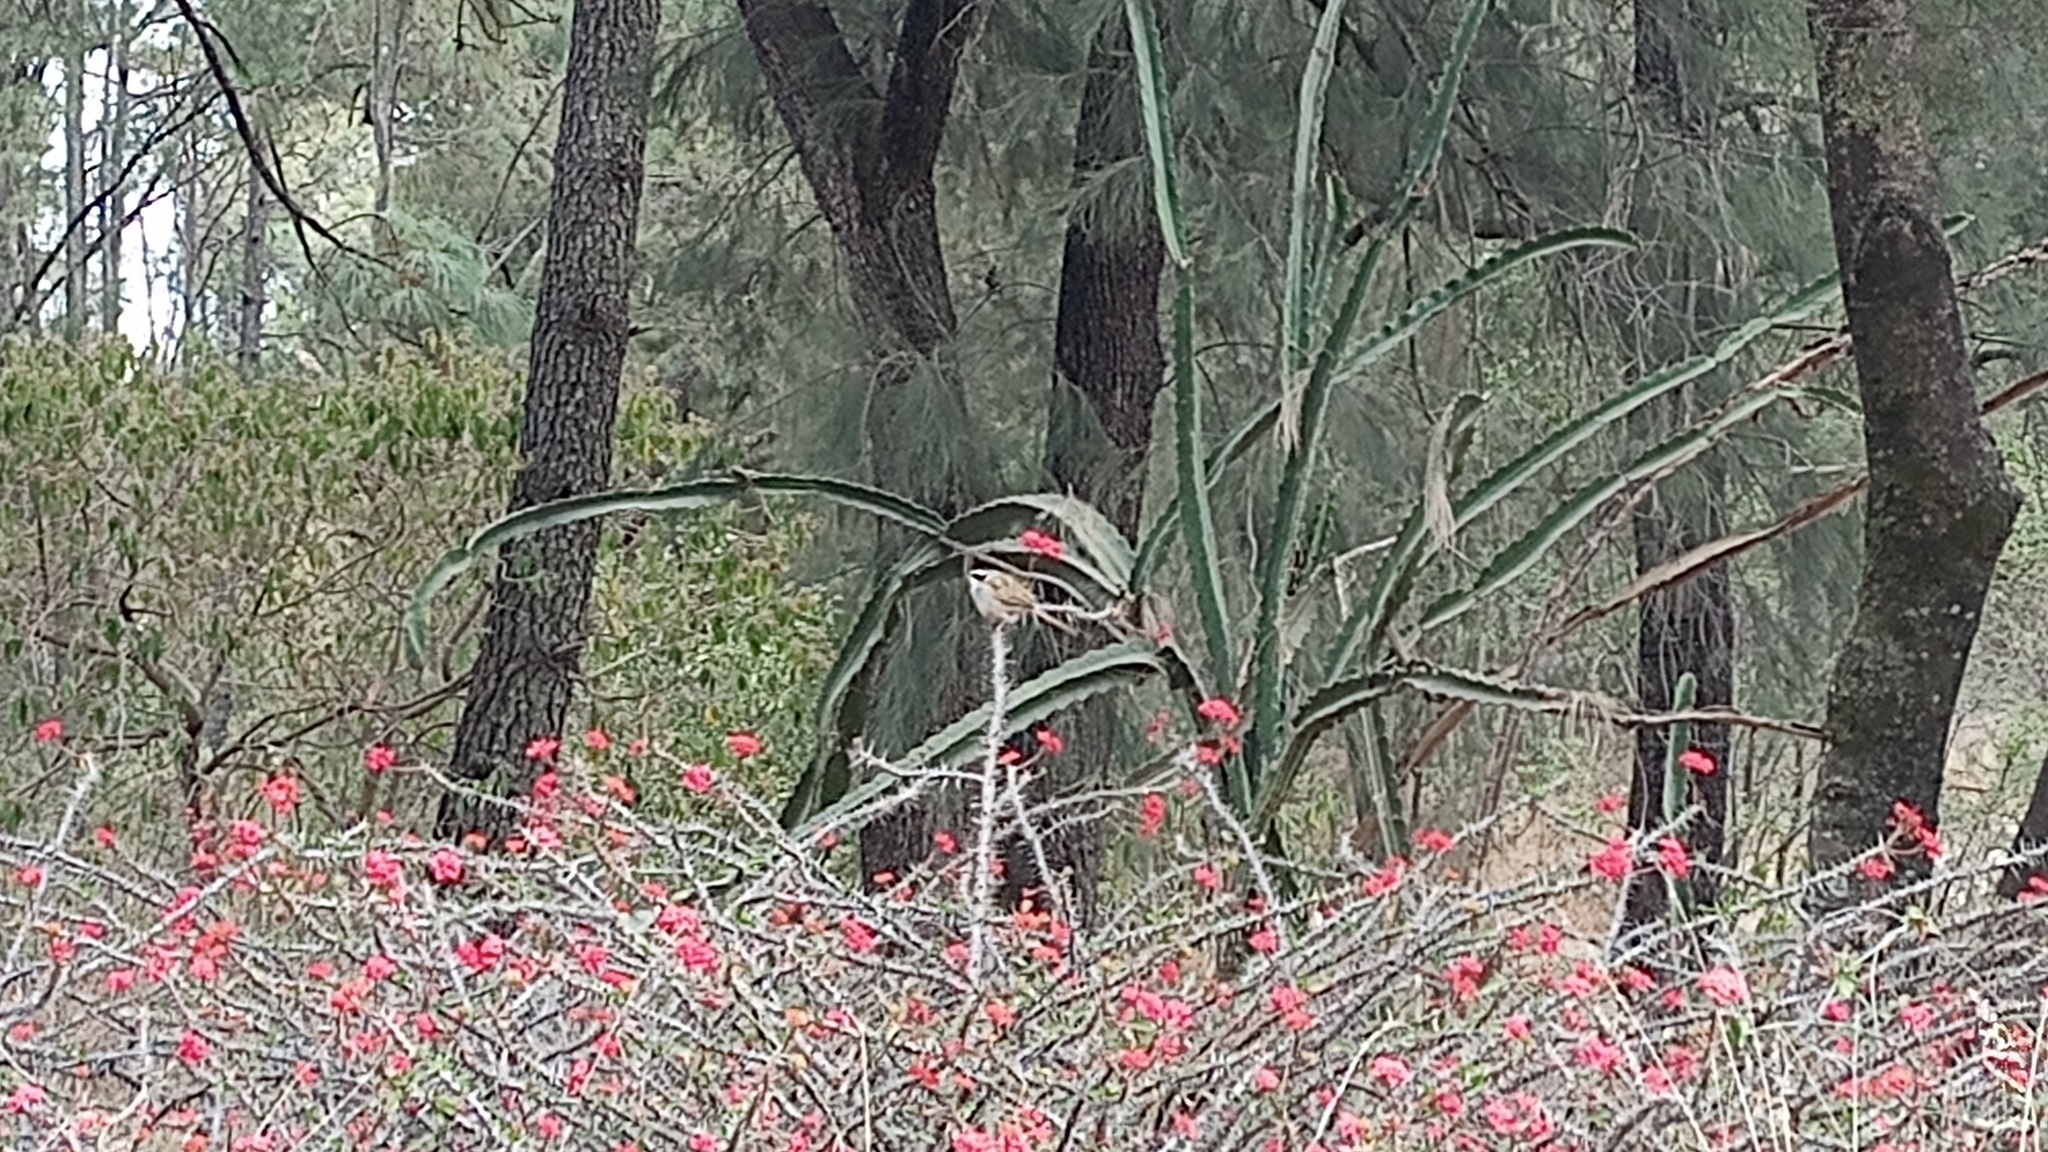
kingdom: Animalia
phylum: Chordata
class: Aves
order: Passeriformes
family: Passerellidae
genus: Peucaea
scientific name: Peucaea ruficauda
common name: Stripe-headed sparrow
